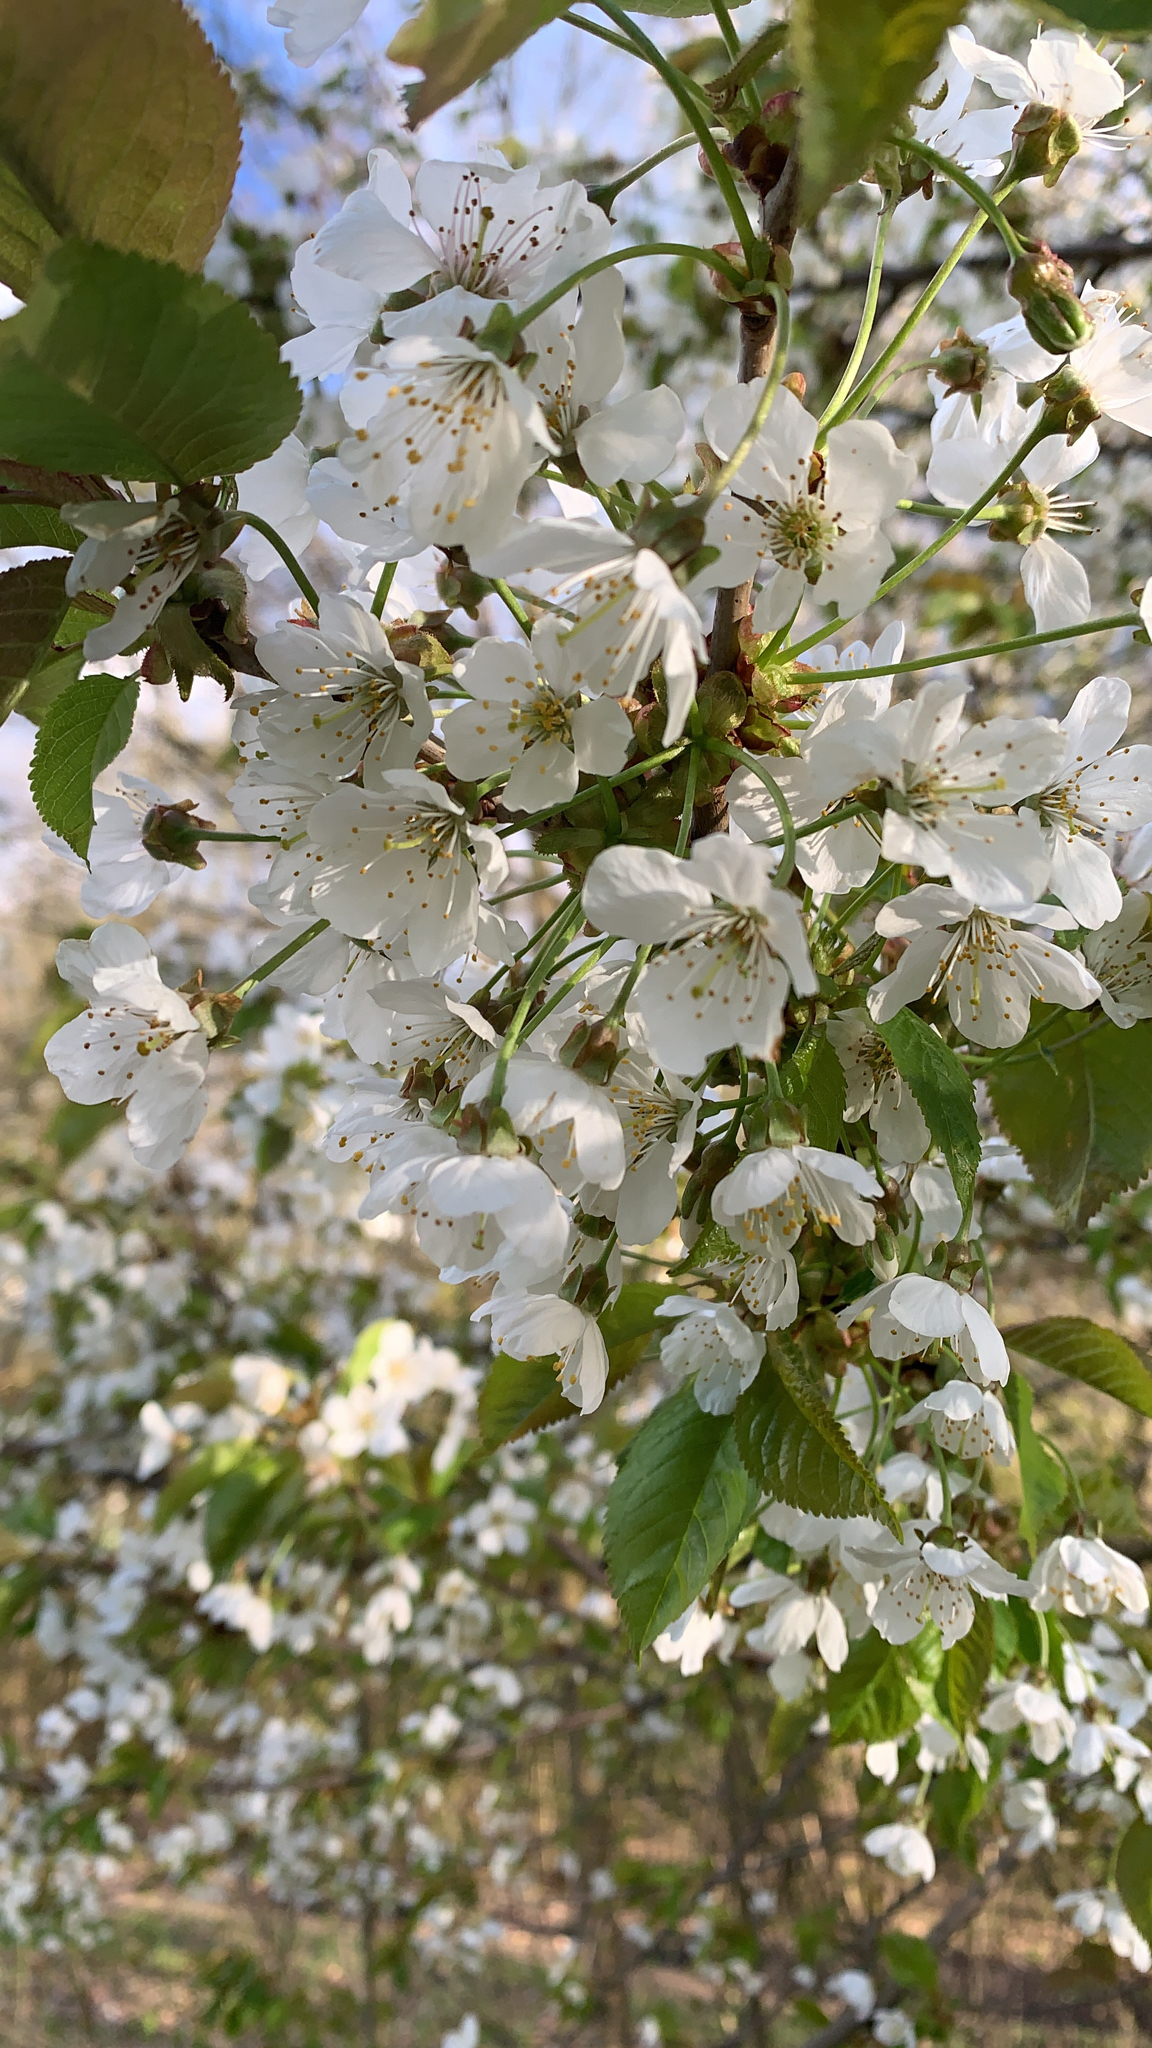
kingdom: Plantae
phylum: Tracheophyta
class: Magnoliopsida
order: Rosales
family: Rosaceae
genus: Prunus
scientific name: Prunus avium
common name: Sweet cherry
